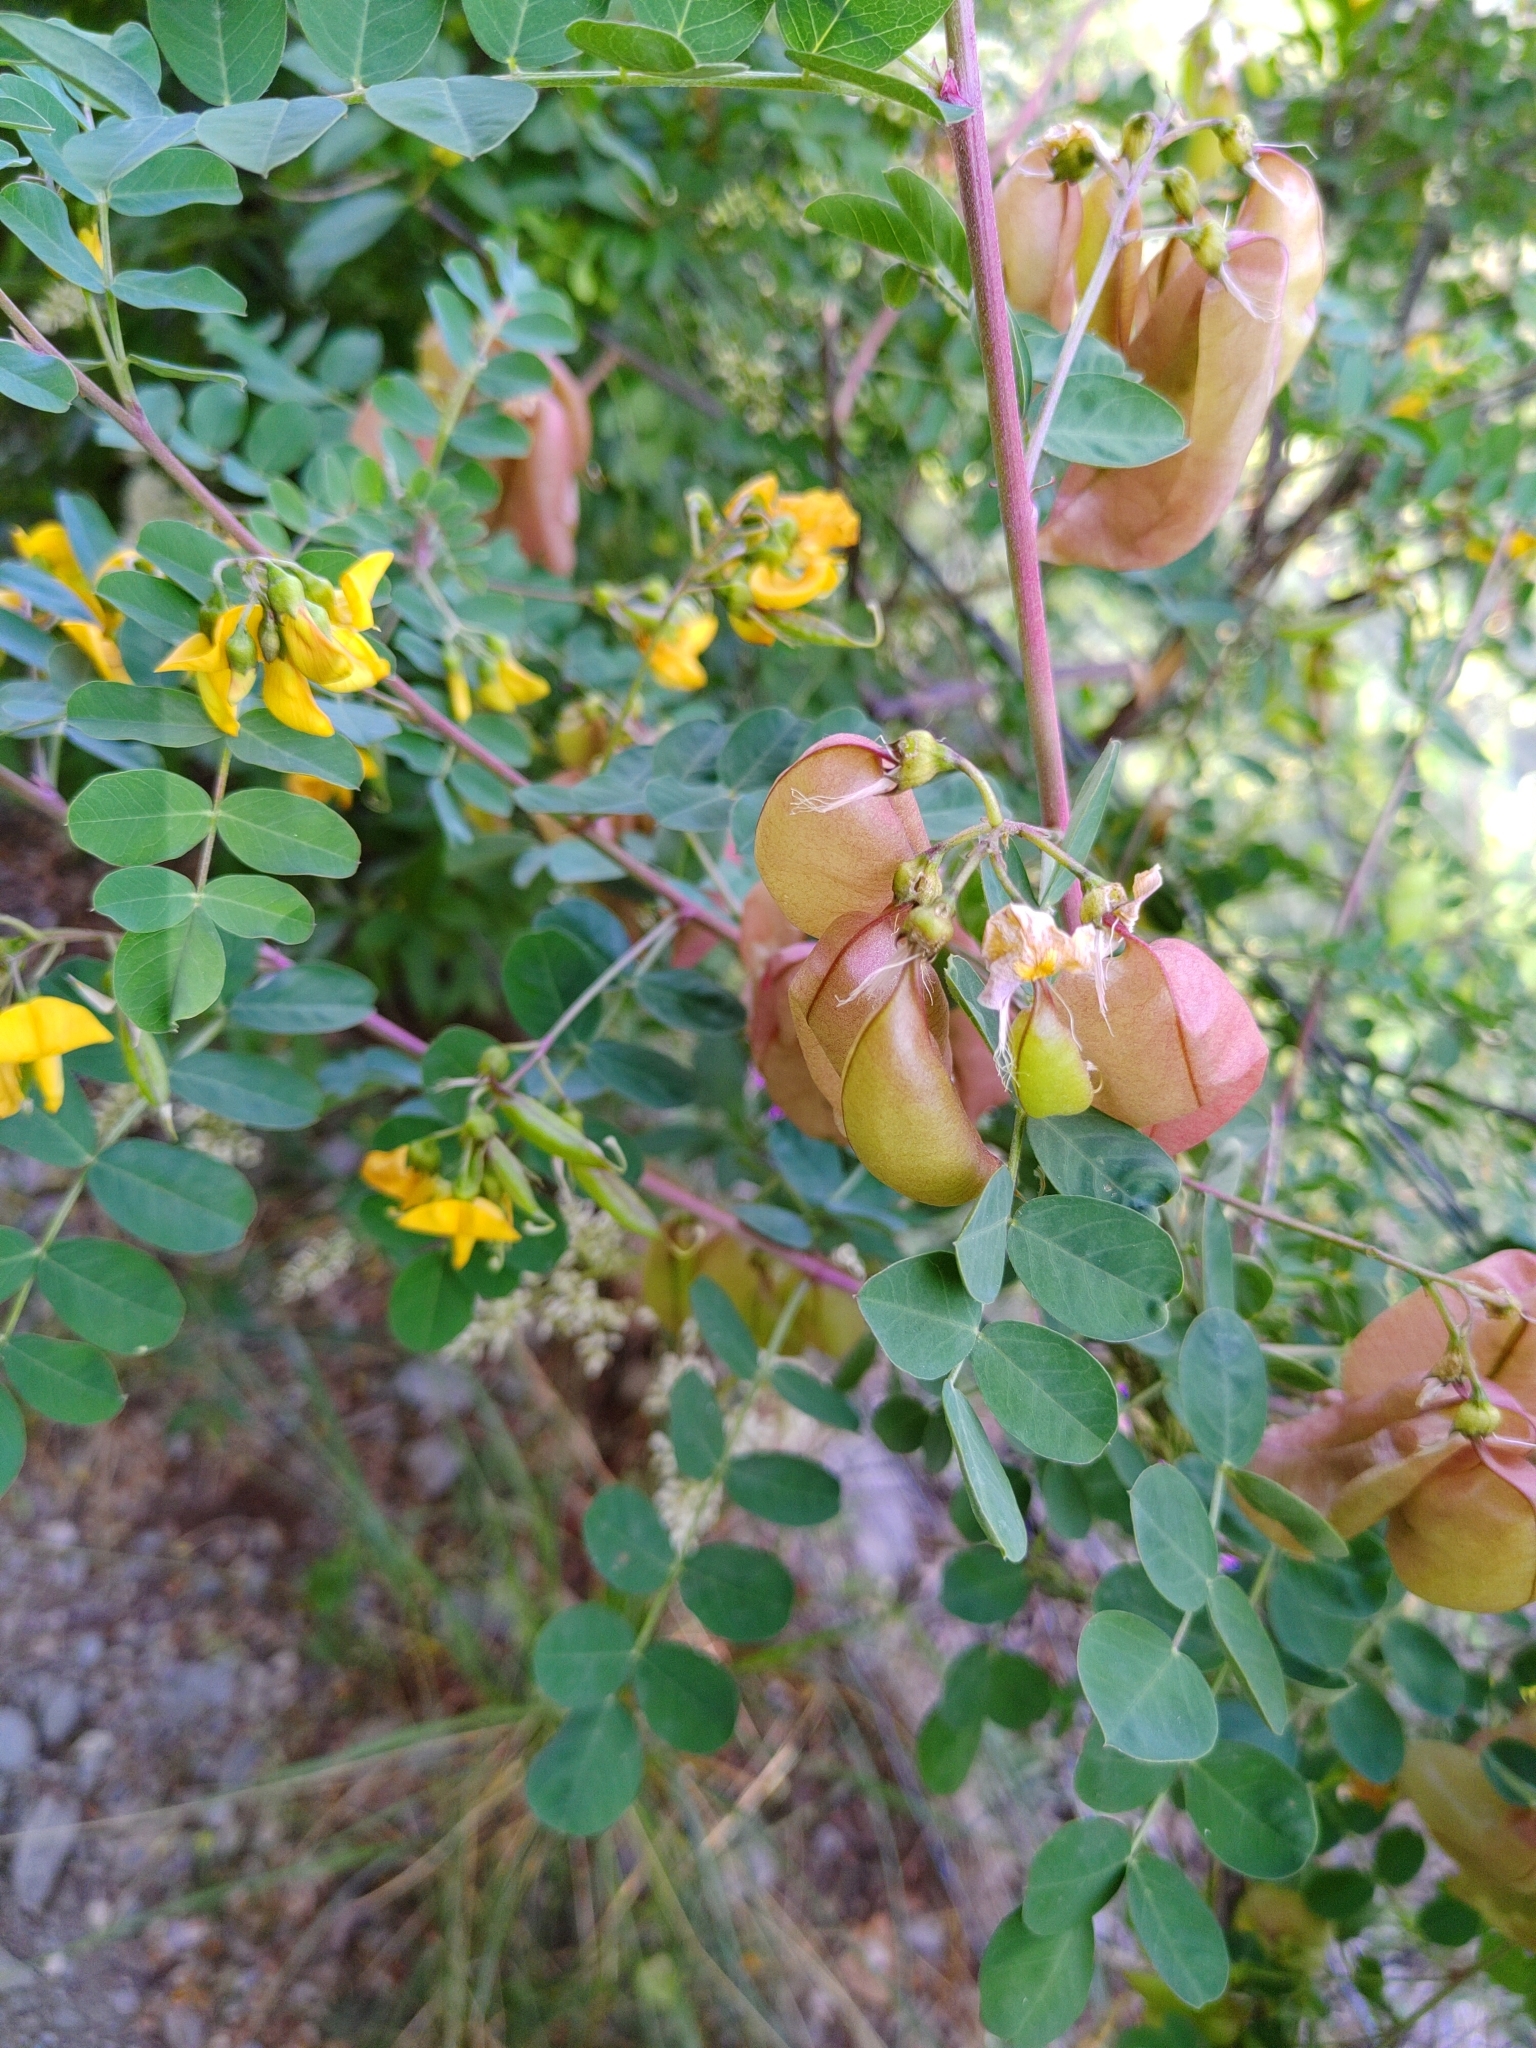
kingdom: Plantae
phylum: Tracheophyta
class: Magnoliopsida
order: Fabales
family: Fabaceae
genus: Colutea
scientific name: Colutea arborescens
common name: Bladder-senna
